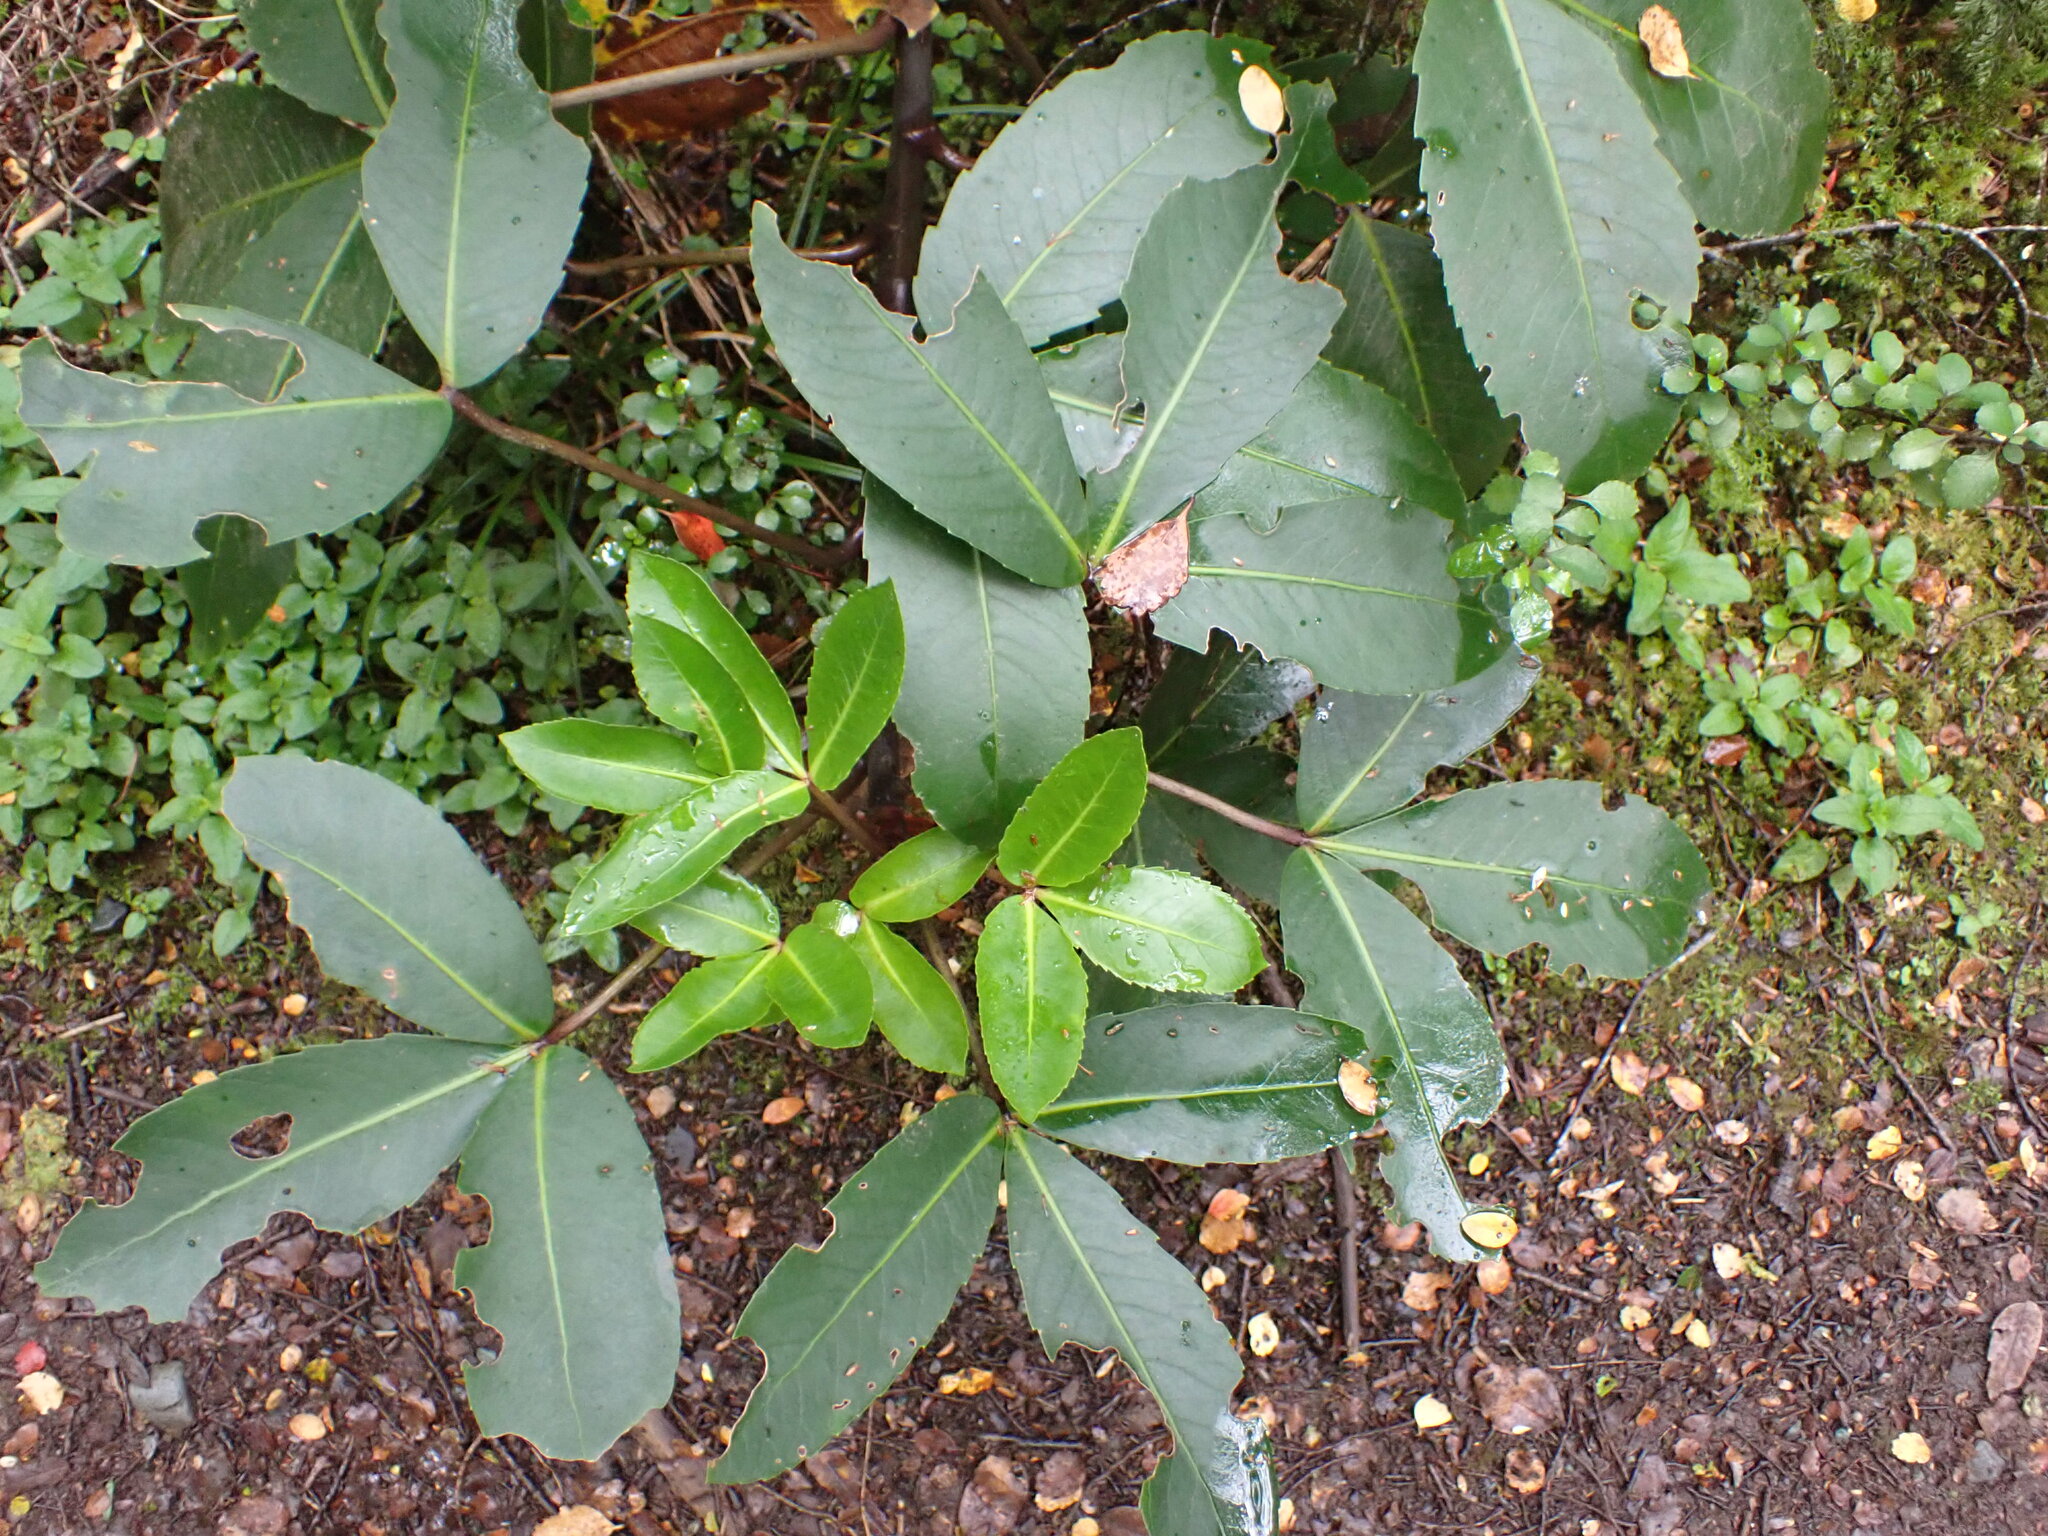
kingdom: Plantae
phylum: Tracheophyta
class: Magnoliopsida
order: Apiales
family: Araliaceae
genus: Neopanax
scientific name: Neopanax colensoi
